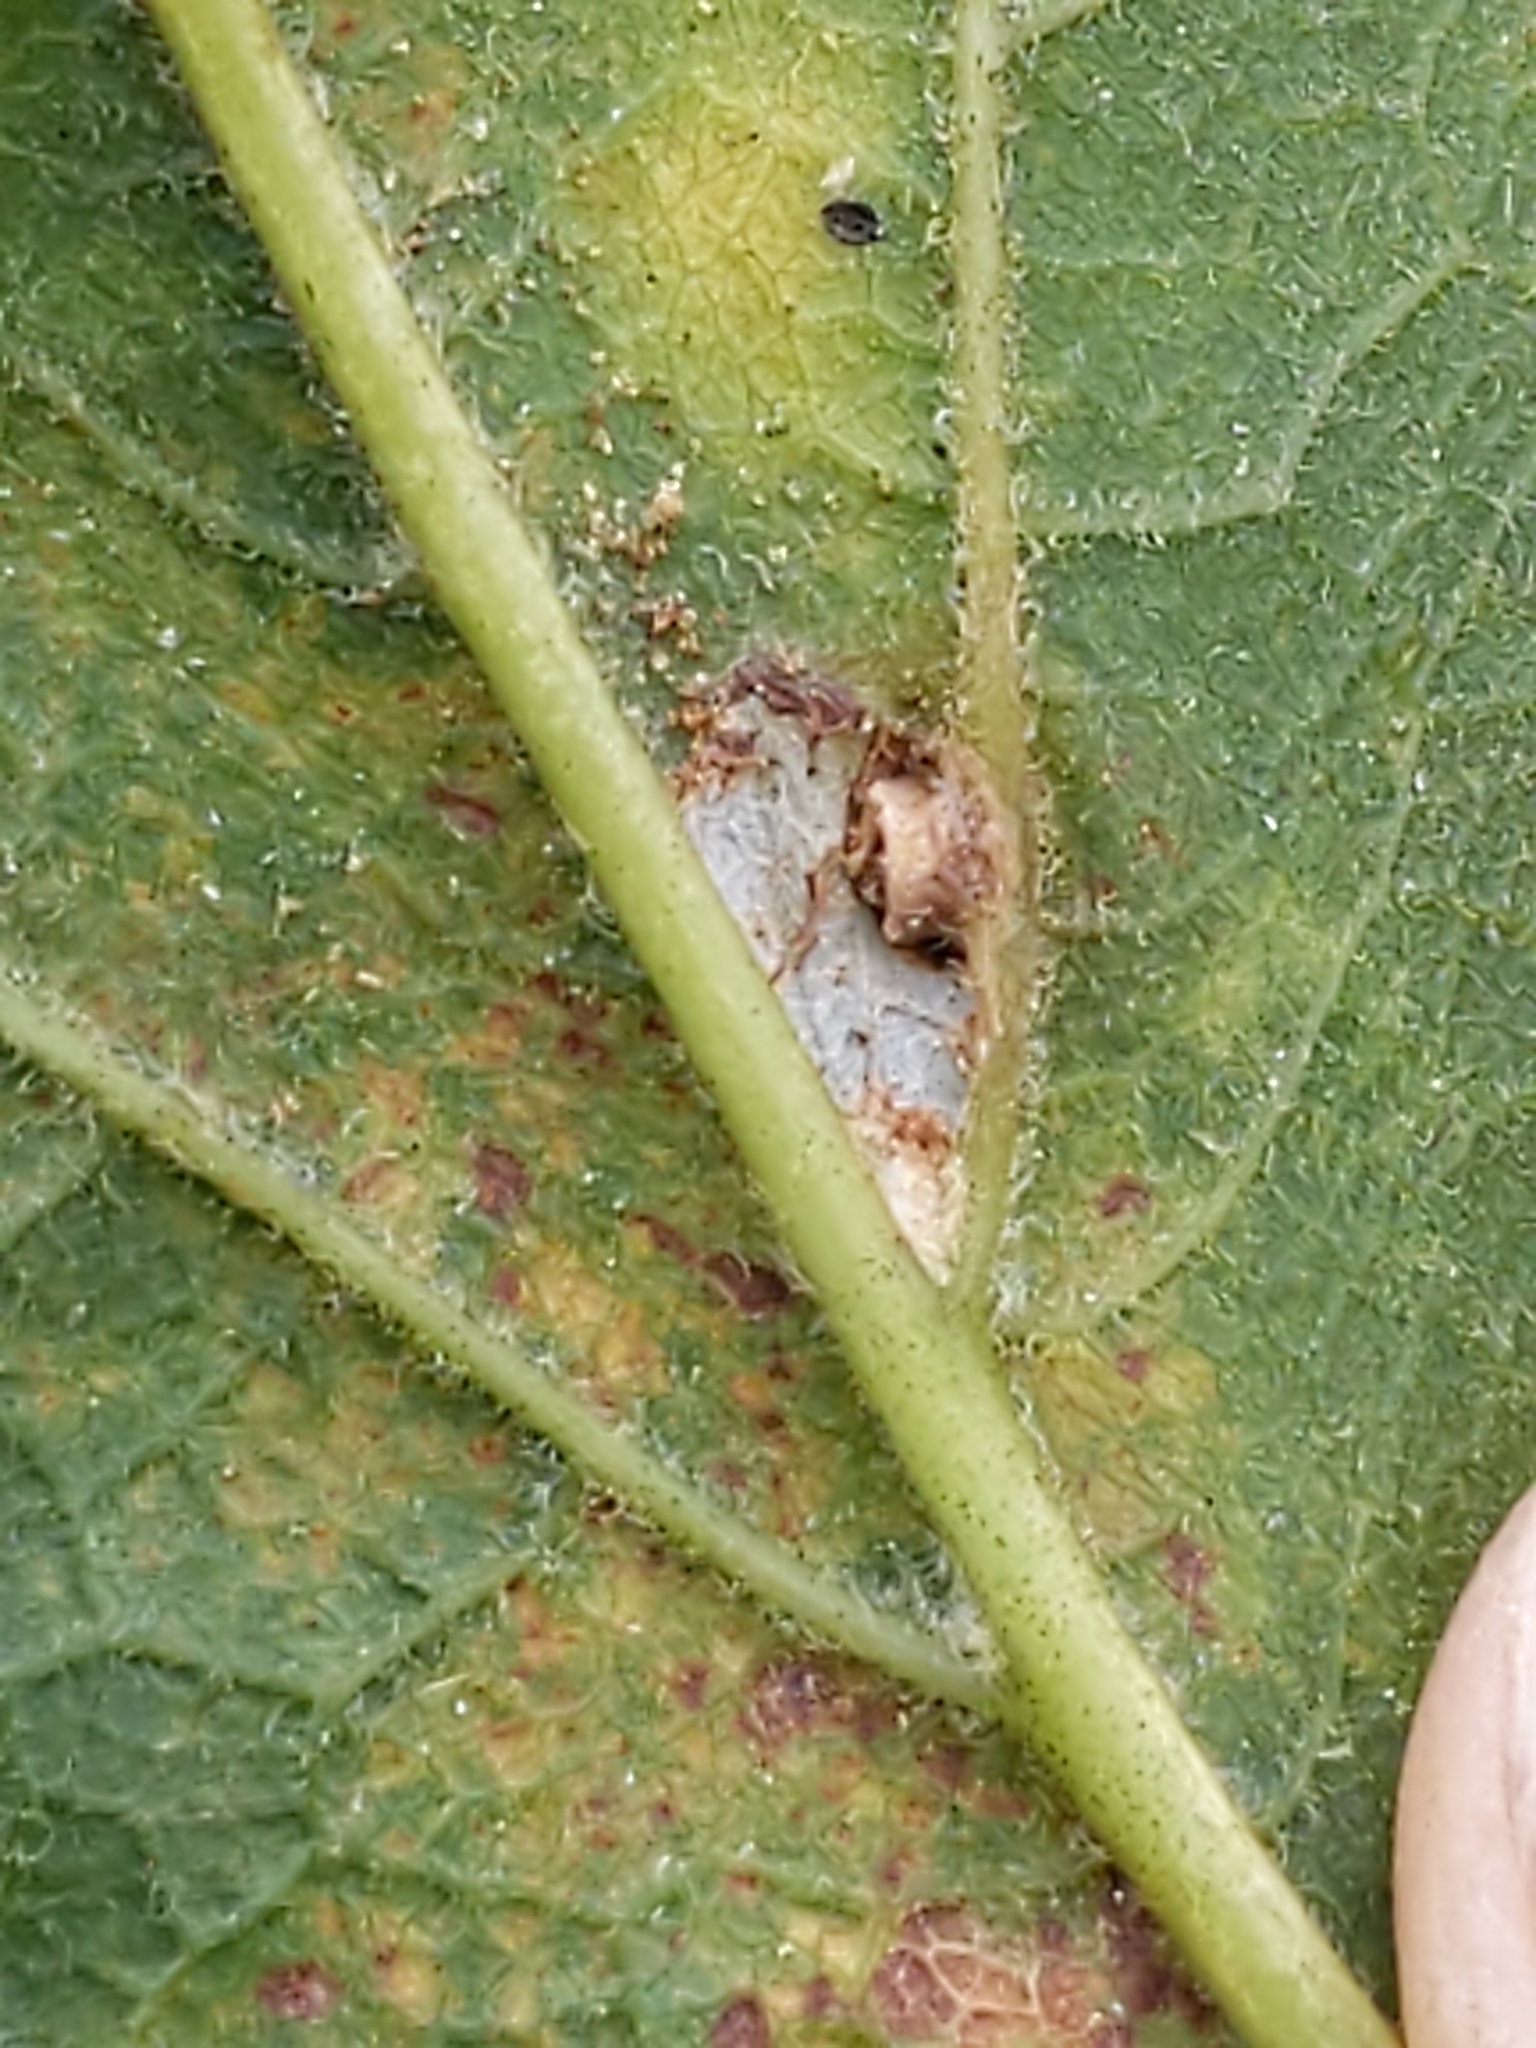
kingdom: Animalia
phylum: Arthropoda
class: Arachnida
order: Trombidiformes
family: Eriophyidae
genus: Aceria
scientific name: Aceria
